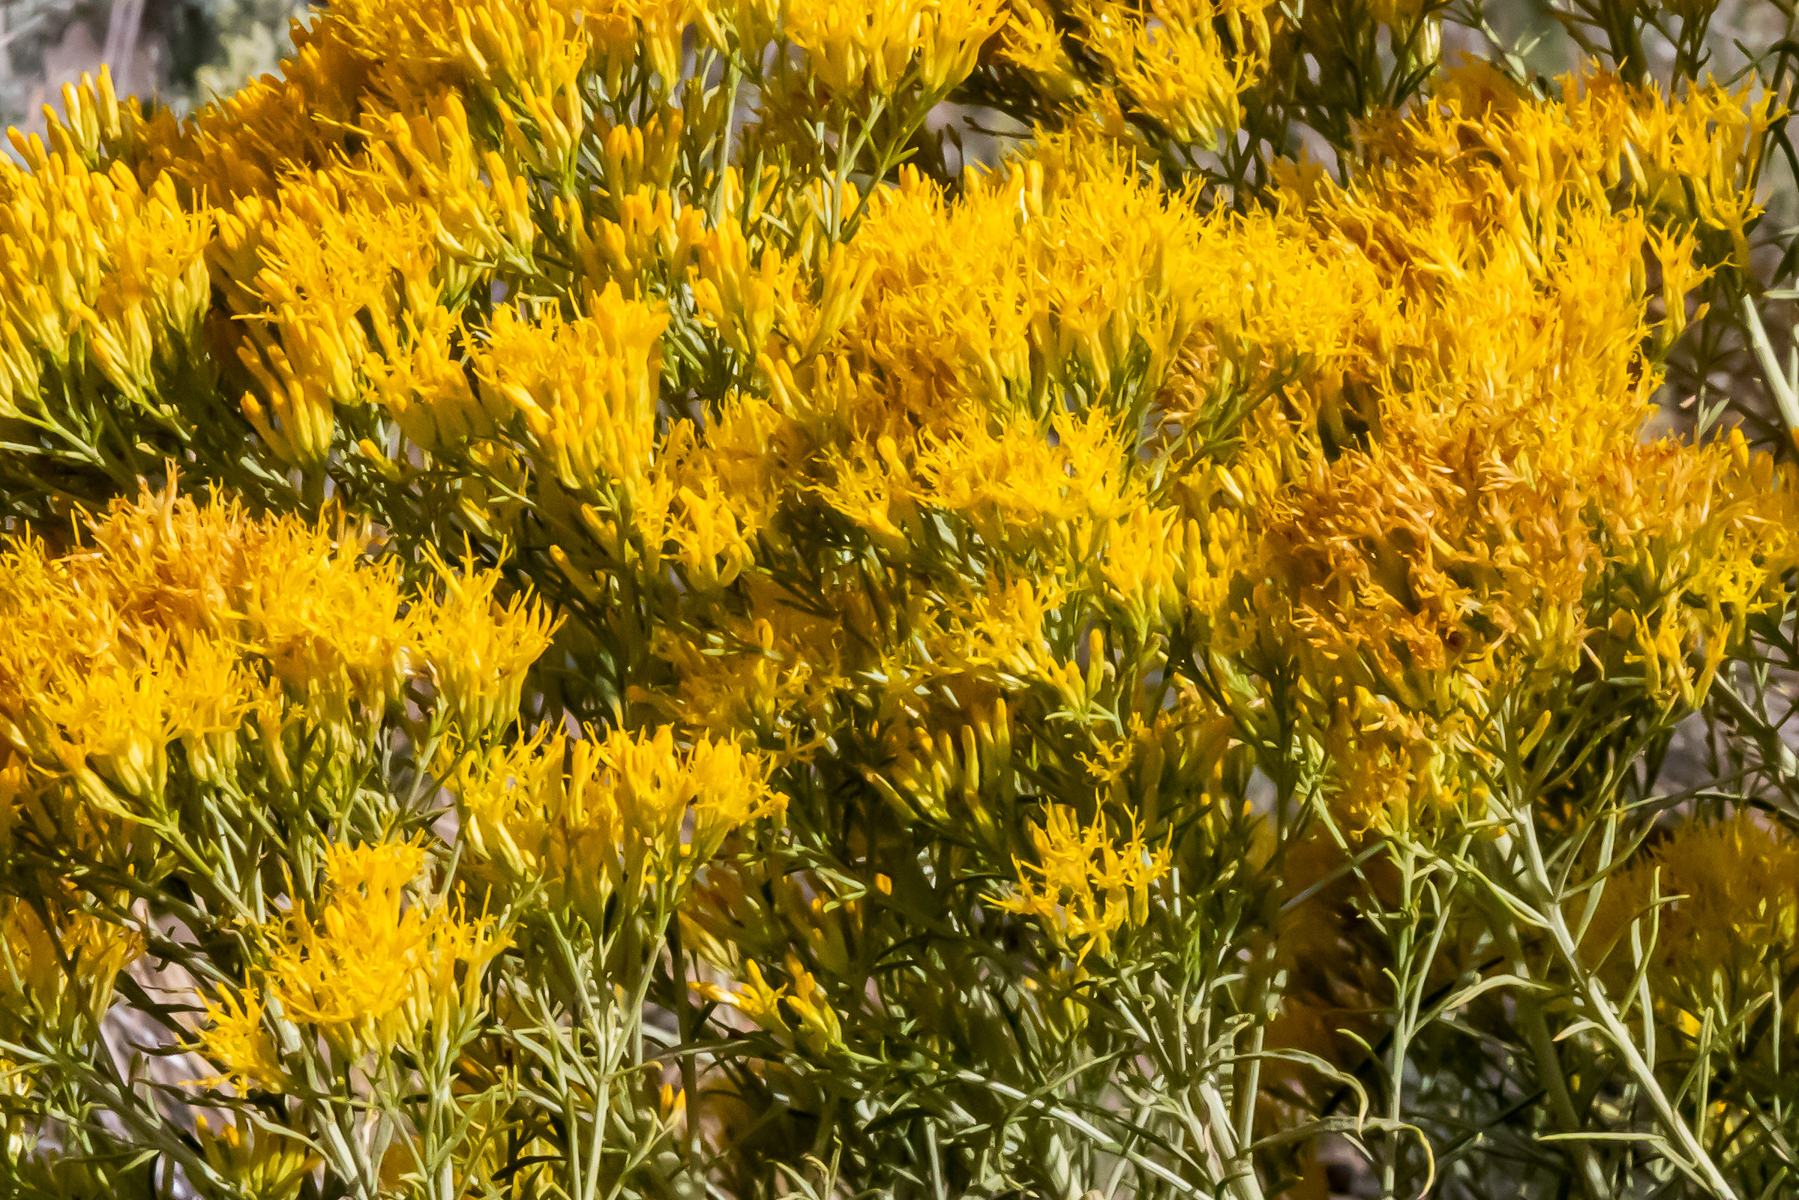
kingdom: Plantae
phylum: Tracheophyta
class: Magnoliopsida
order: Asterales
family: Asteraceae
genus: Ericameria
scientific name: Ericameria nauseosa
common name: Rubber rabbitbrush
